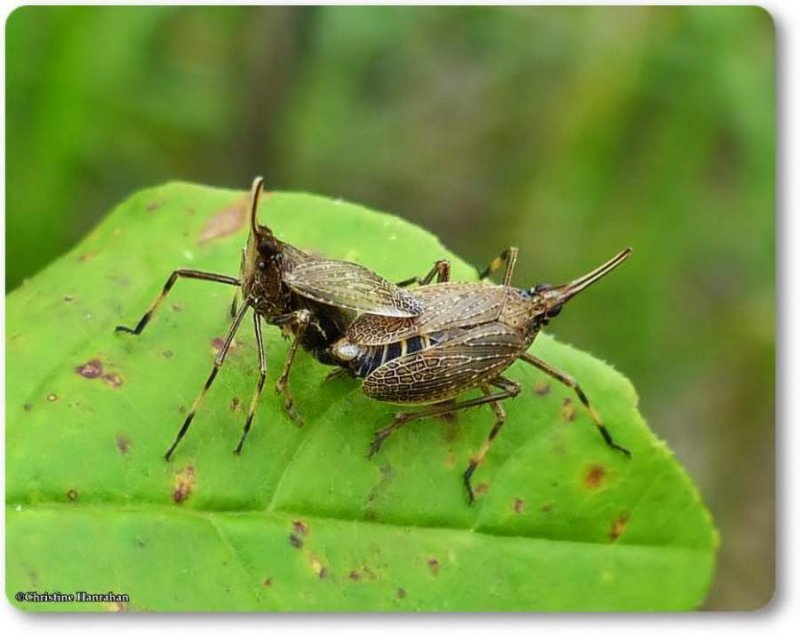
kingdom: Animalia
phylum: Arthropoda
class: Insecta
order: Hemiptera
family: Dictyopharidae
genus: Scolops
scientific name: Scolops sulcipes
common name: Partridge planthopper
